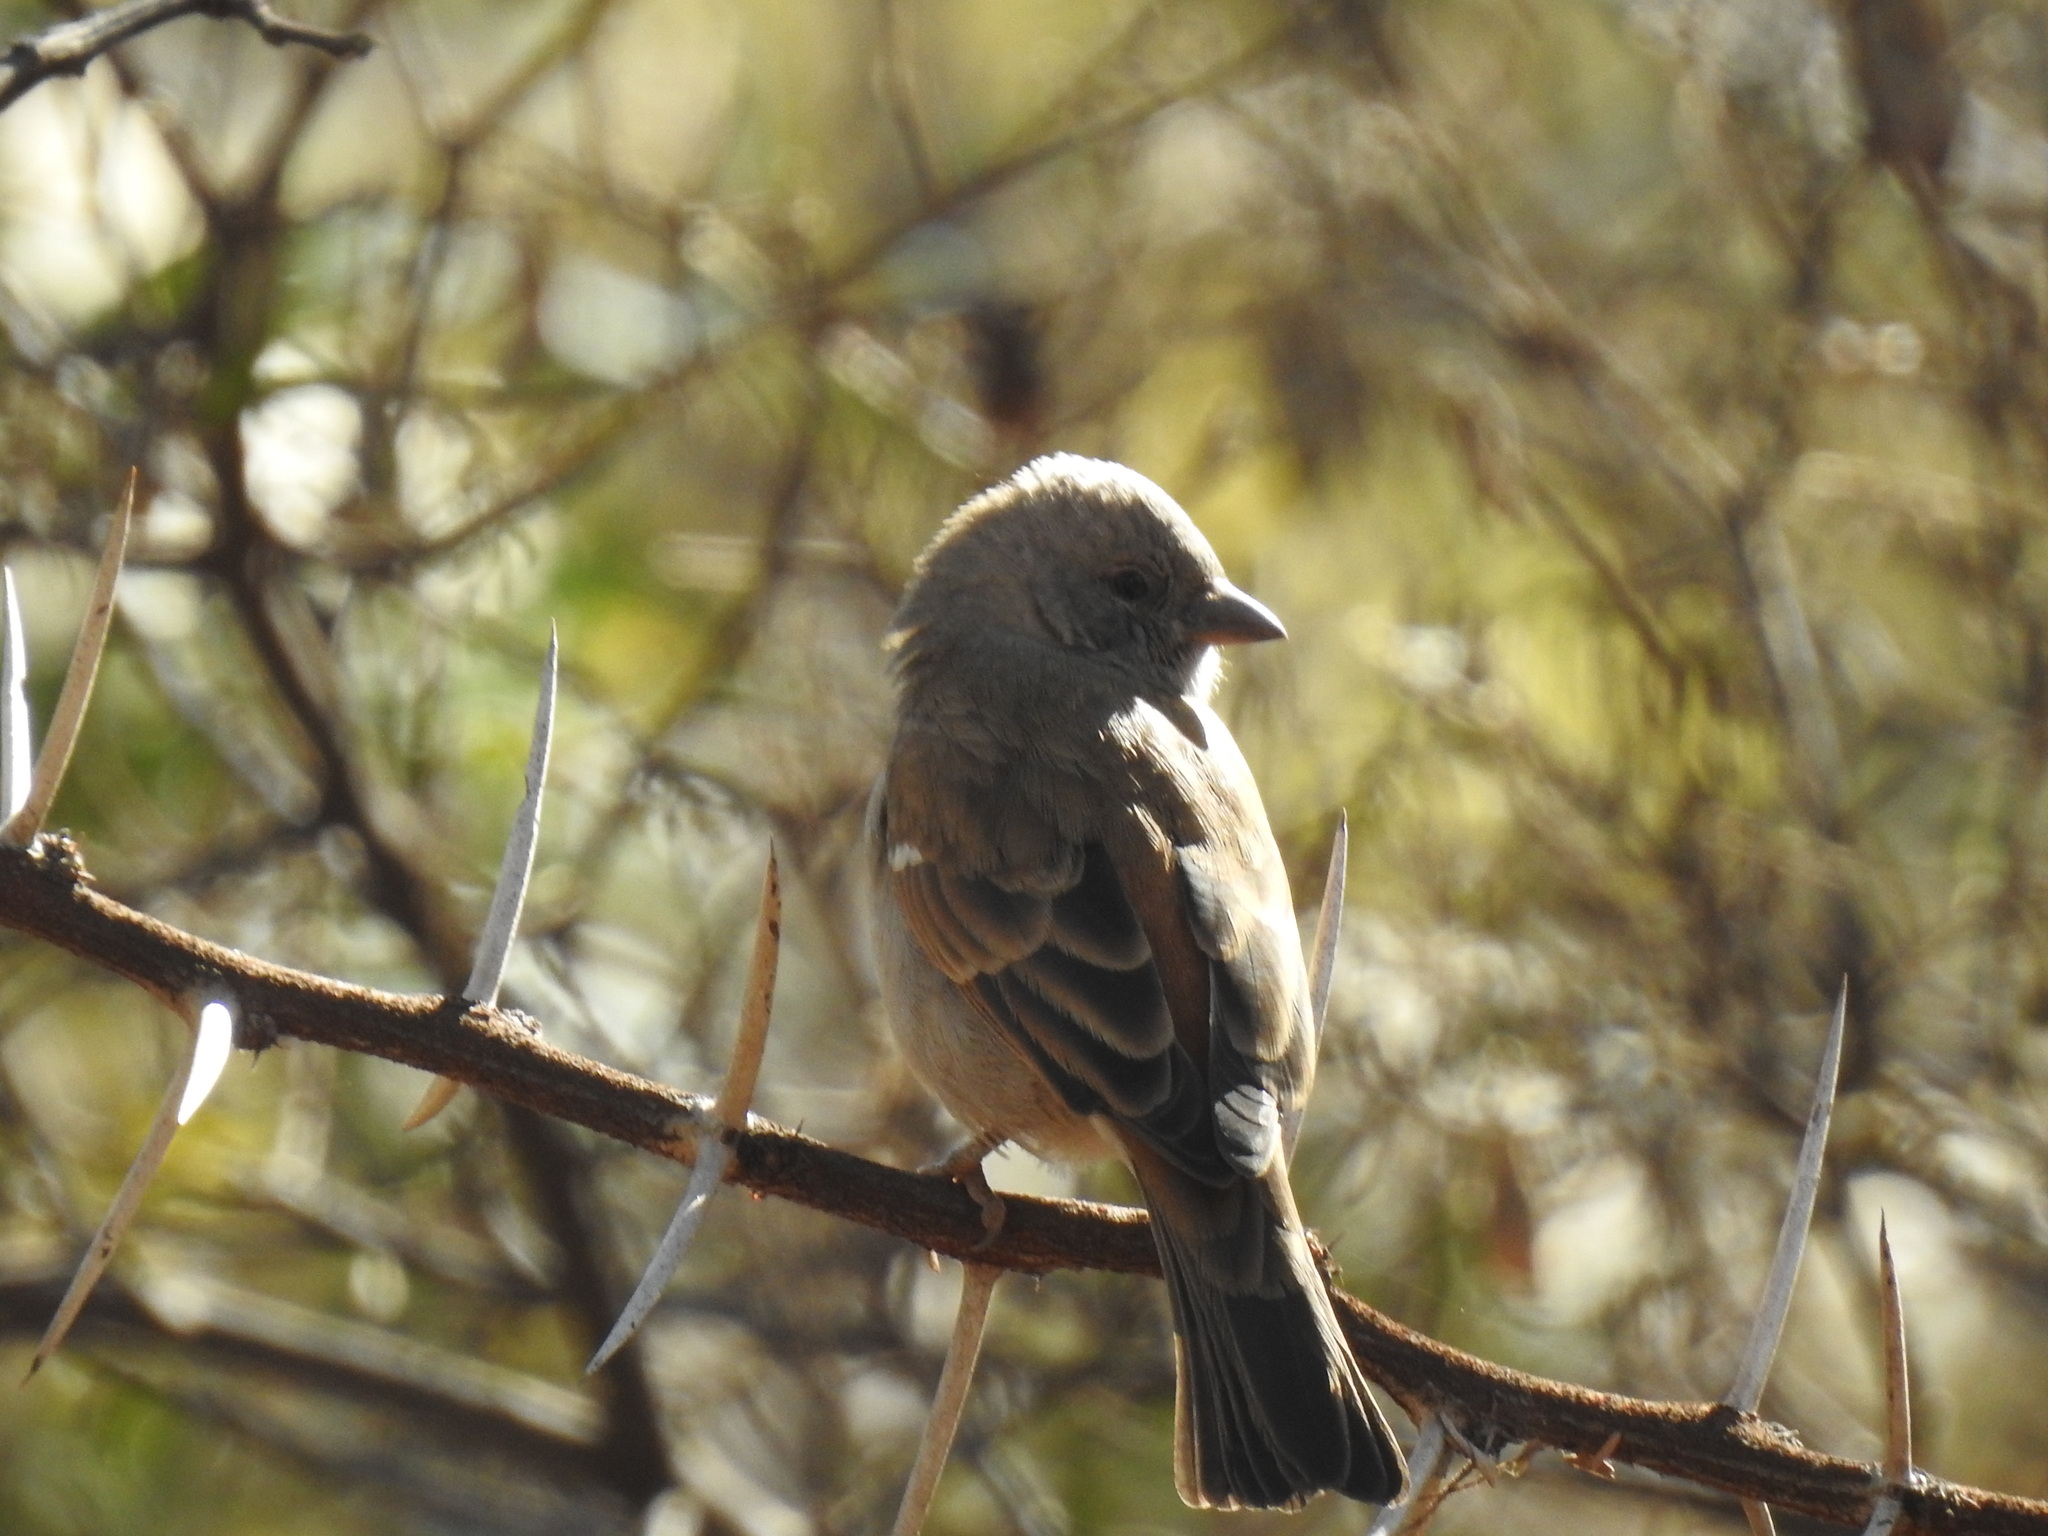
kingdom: Animalia
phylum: Chordata
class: Aves
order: Passeriformes
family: Passeridae
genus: Passer
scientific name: Passer diffusus
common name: Southern grey-headed sparrow
